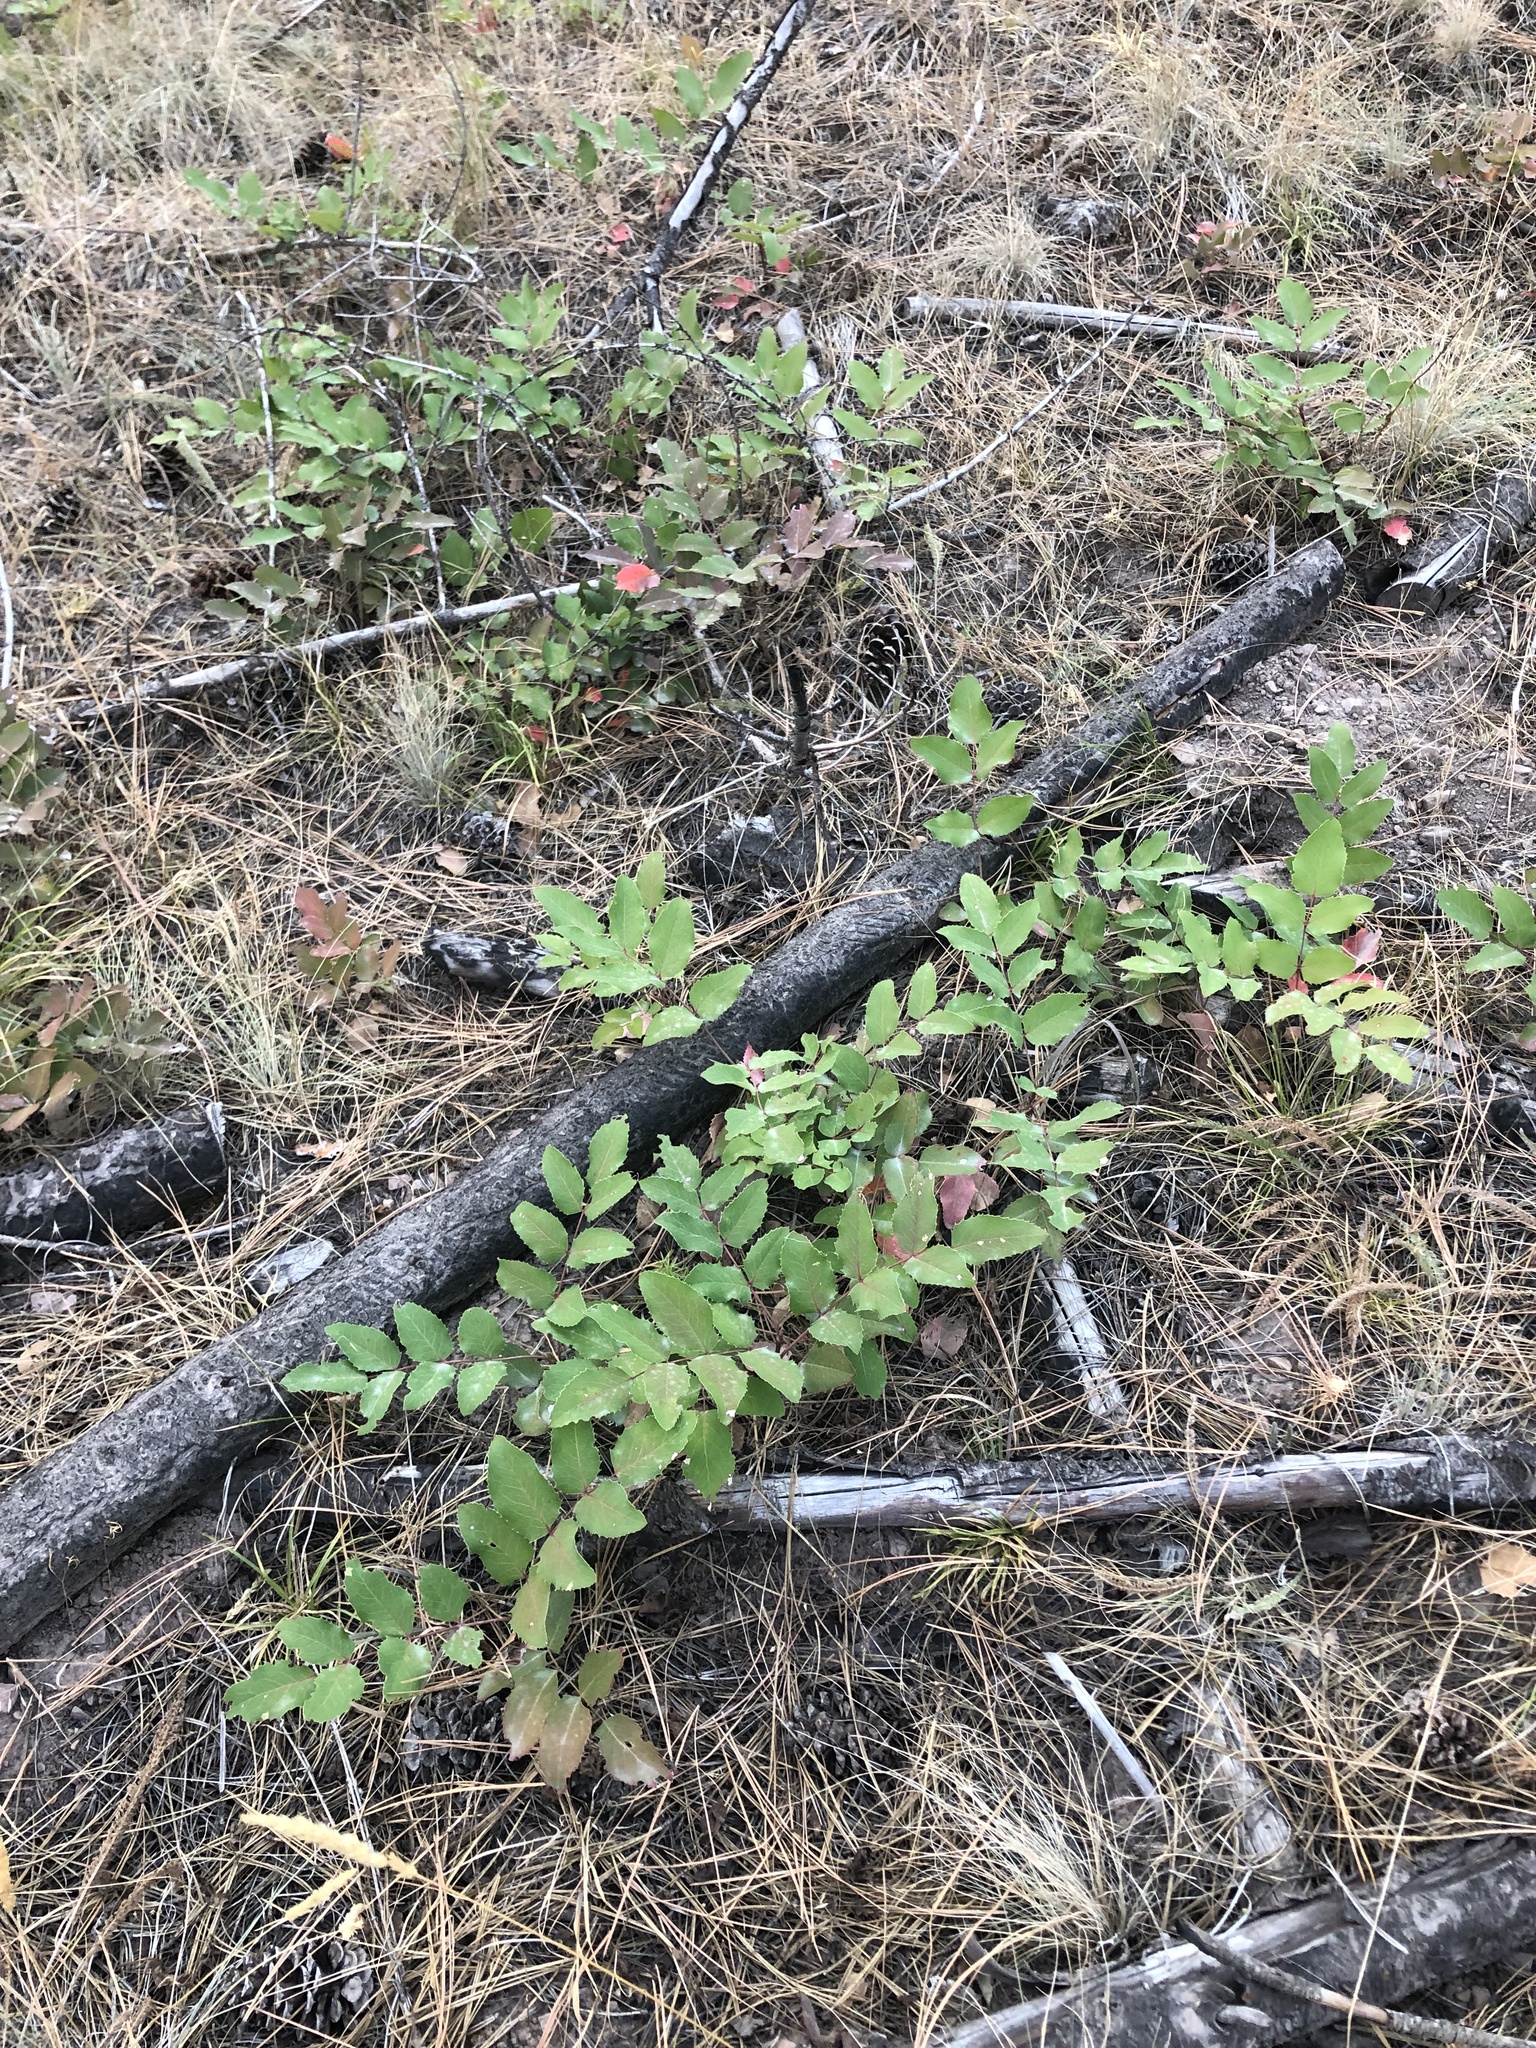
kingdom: Plantae
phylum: Tracheophyta
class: Magnoliopsida
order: Ranunculales
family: Berberidaceae
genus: Mahonia
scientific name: Mahonia repens
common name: Creeping oregon-grape
